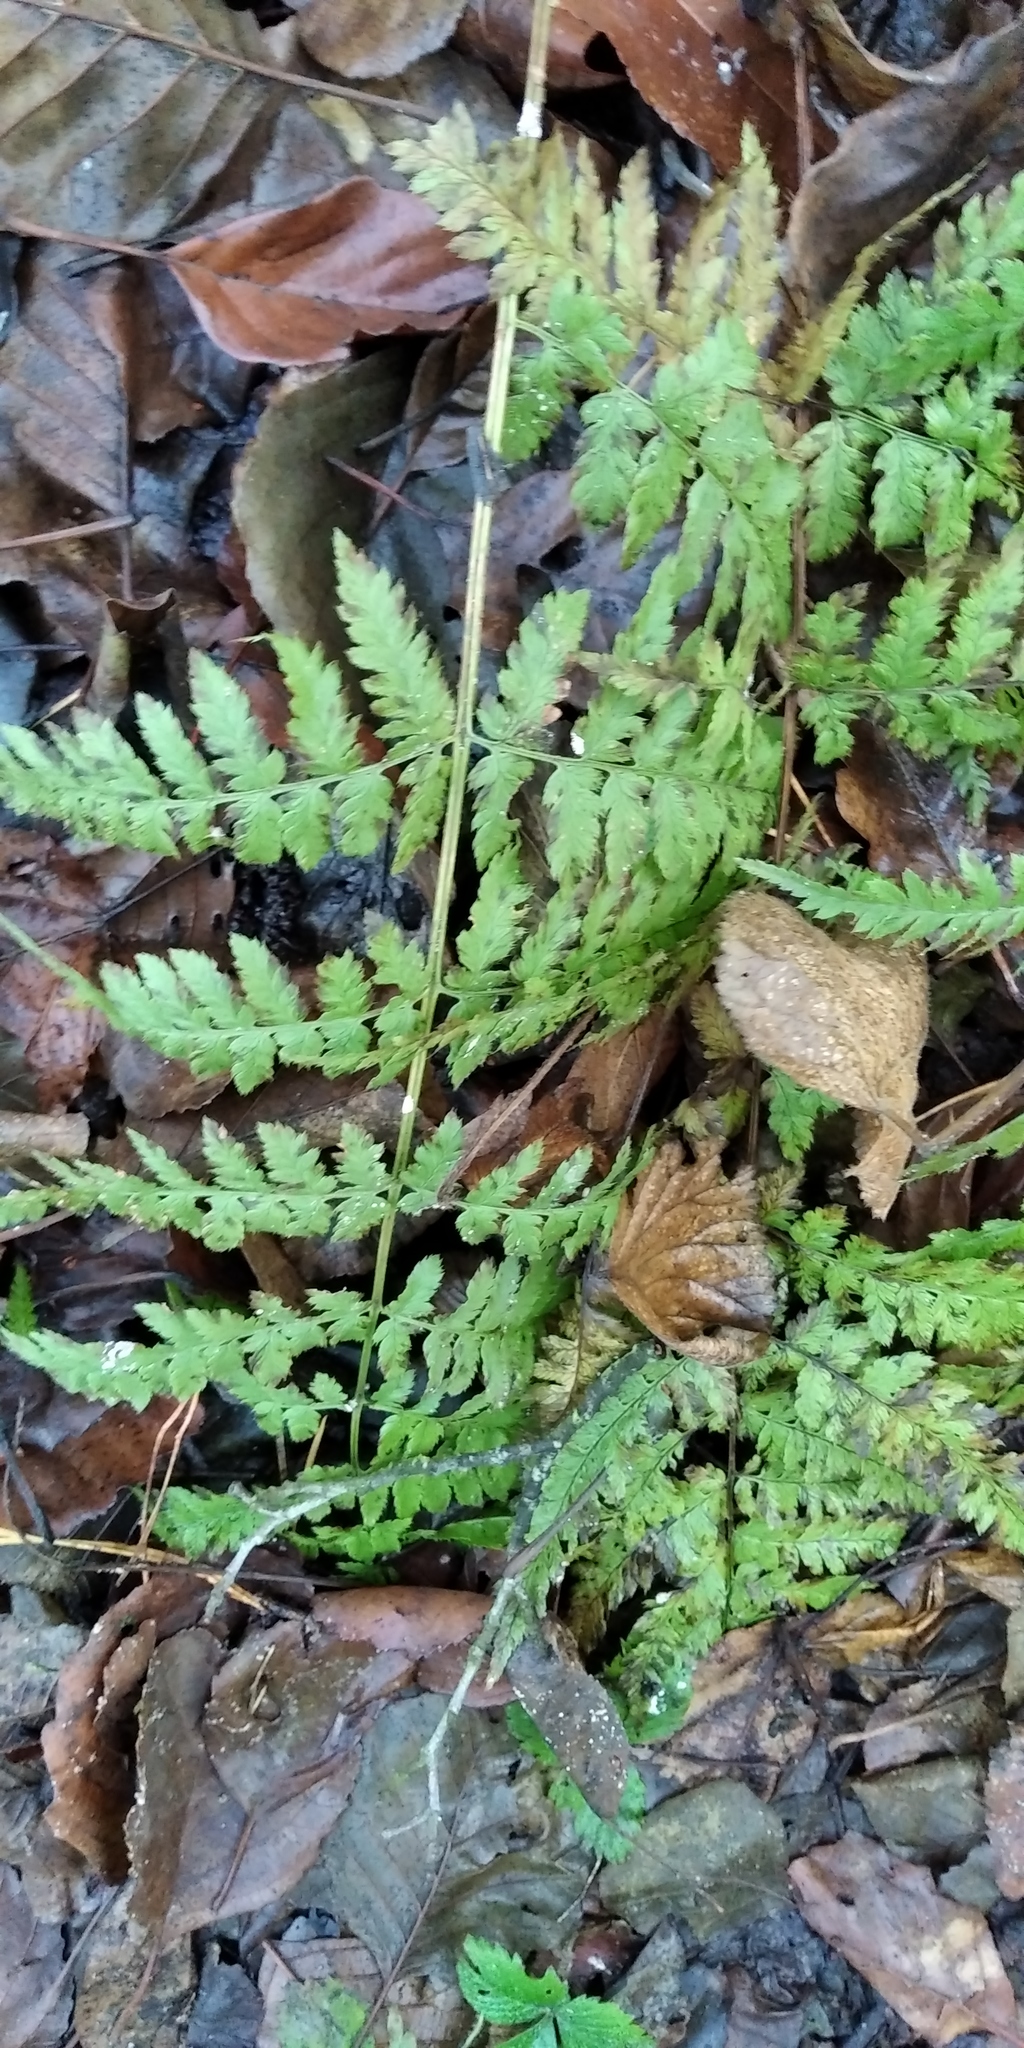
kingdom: Plantae
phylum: Tracheophyta
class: Polypodiopsida
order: Polypodiales
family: Dryopteridaceae
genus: Dryopteris
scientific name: Dryopteris carthusiana
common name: Narrow buckler-fern
